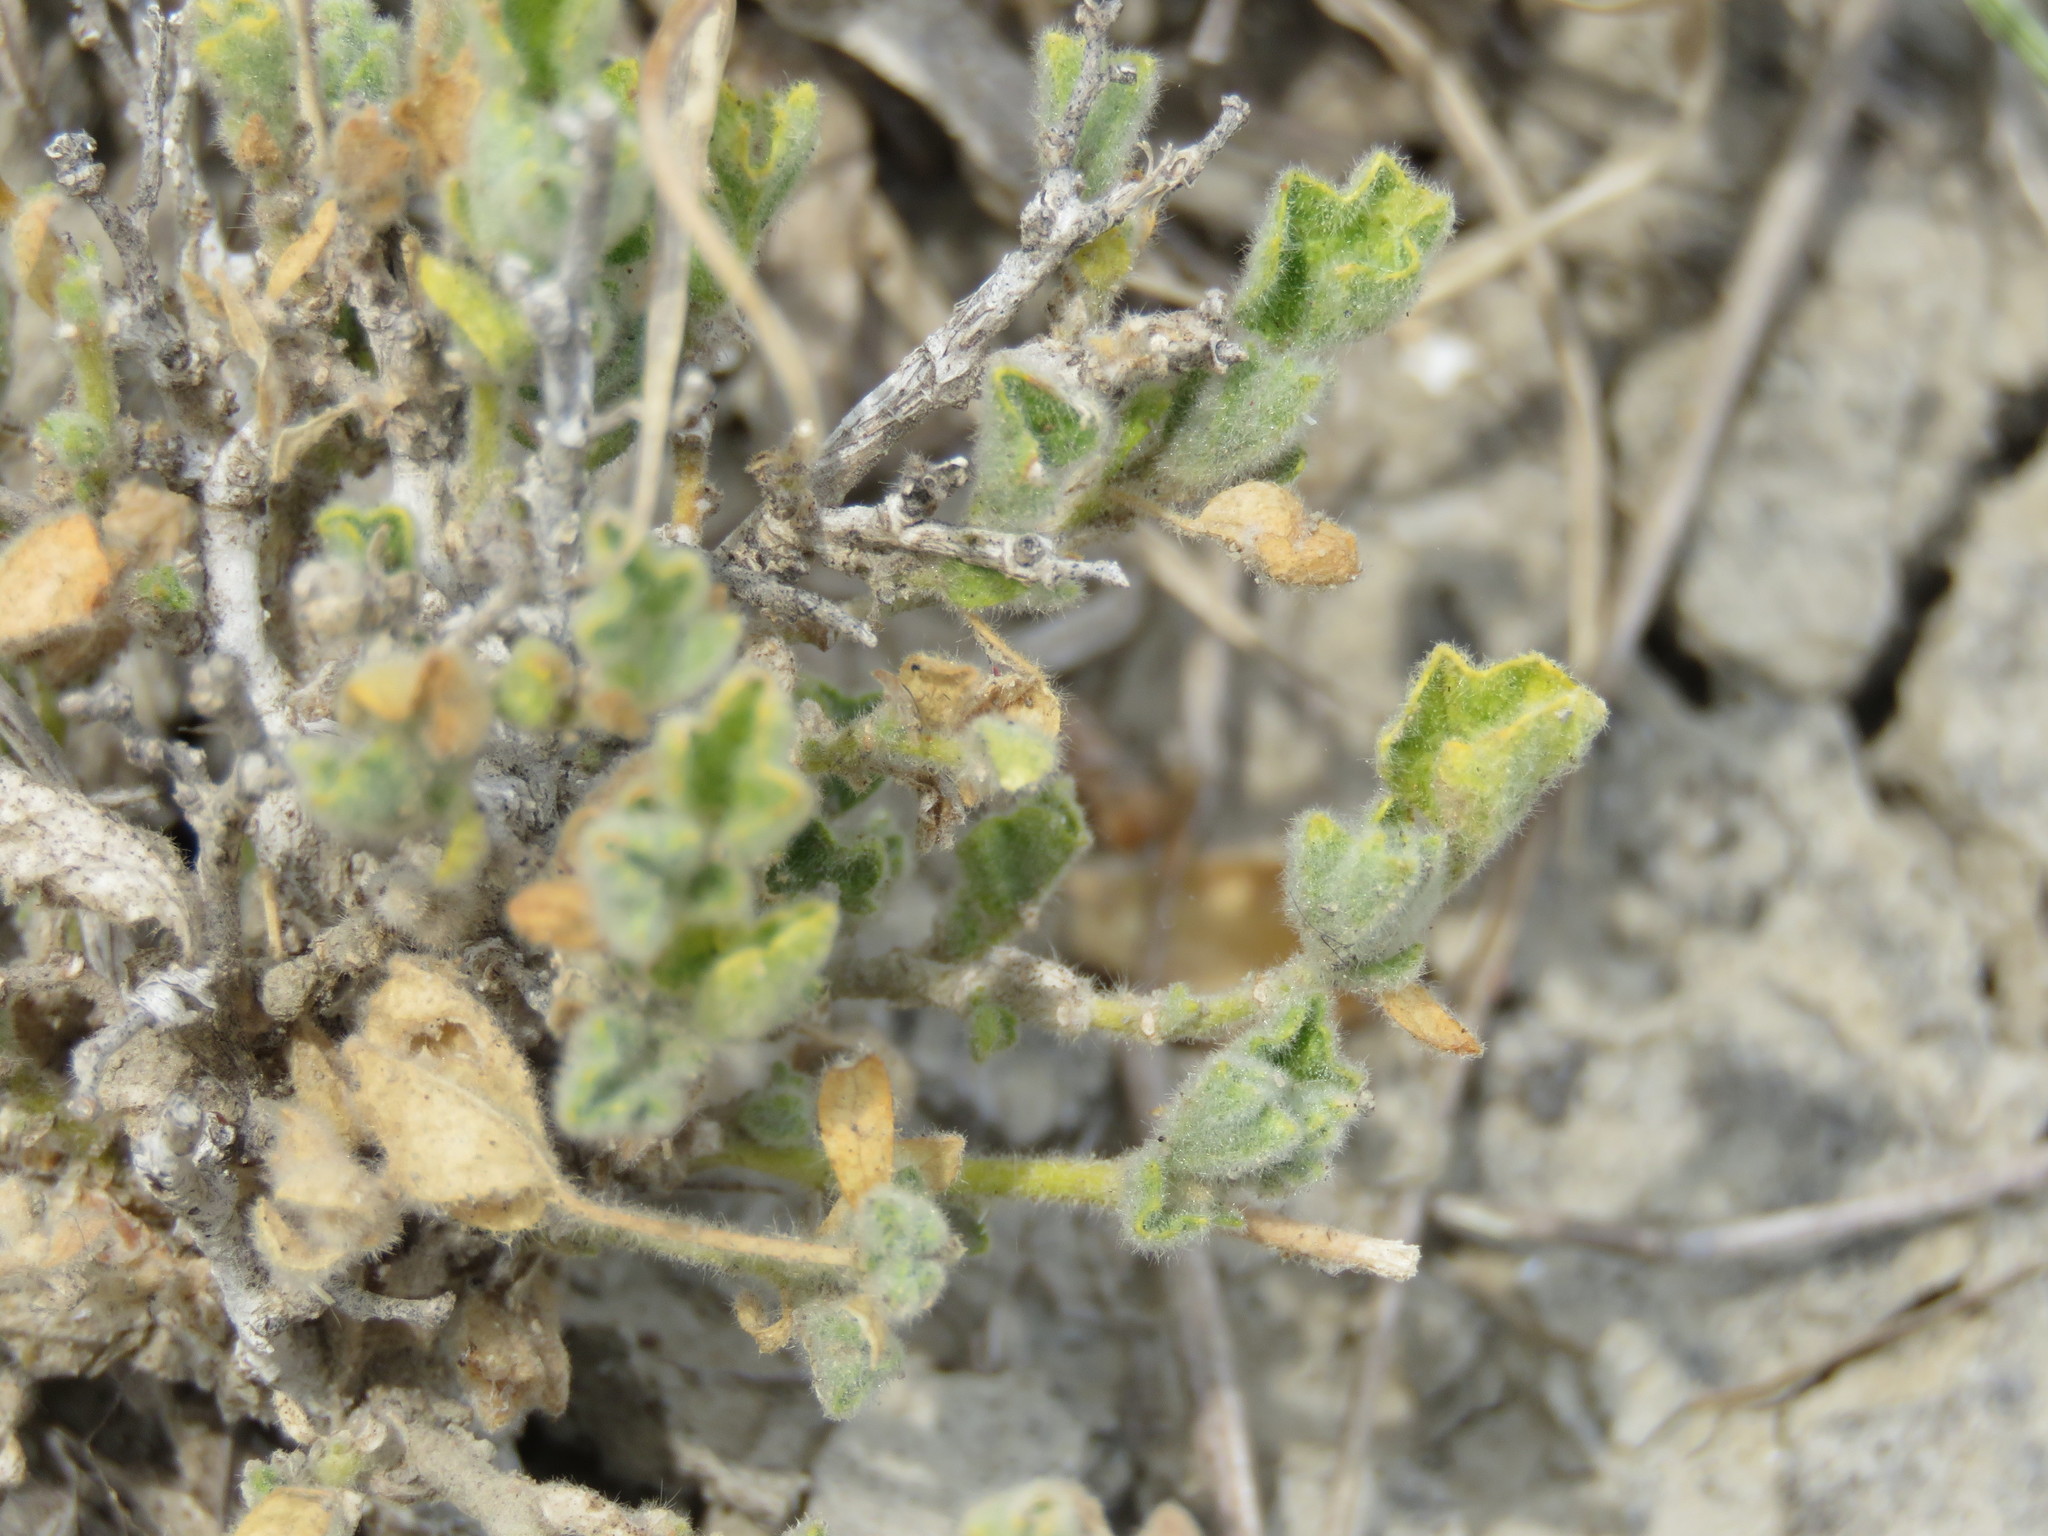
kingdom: Plantae
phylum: Tracheophyta
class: Magnoliopsida
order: Malvales
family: Malvaceae
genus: Billieturnera
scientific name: Billieturnera helleri
